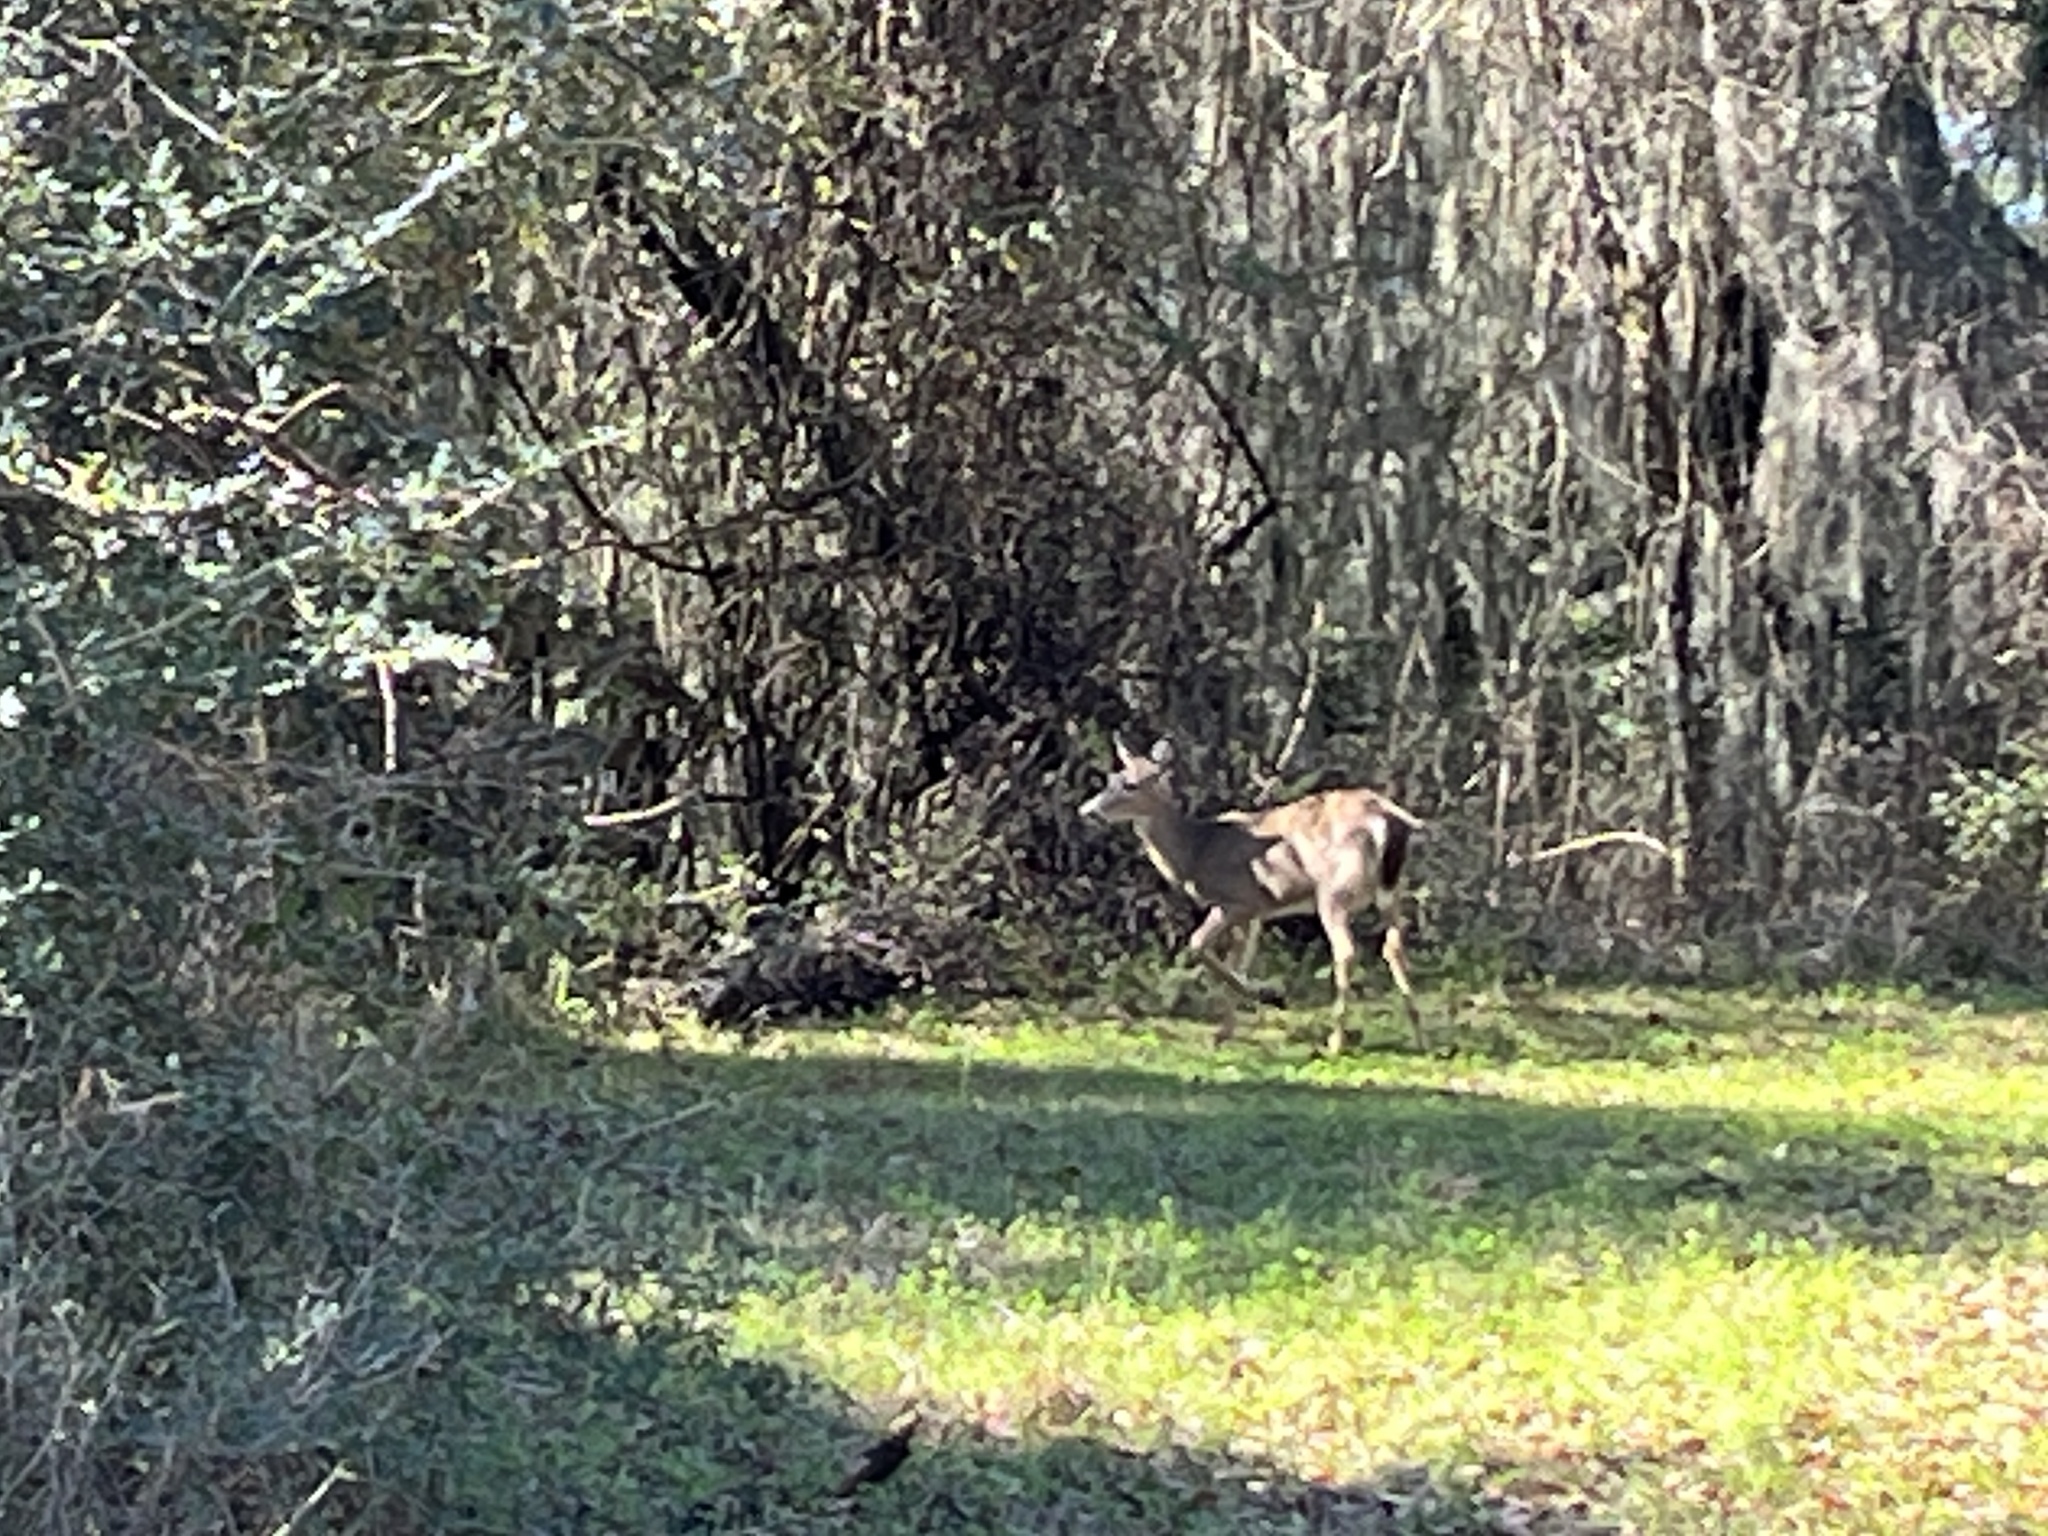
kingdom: Animalia
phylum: Chordata
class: Mammalia
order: Artiodactyla
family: Cervidae
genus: Odocoileus
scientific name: Odocoileus virginianus
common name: White-tailed deer
